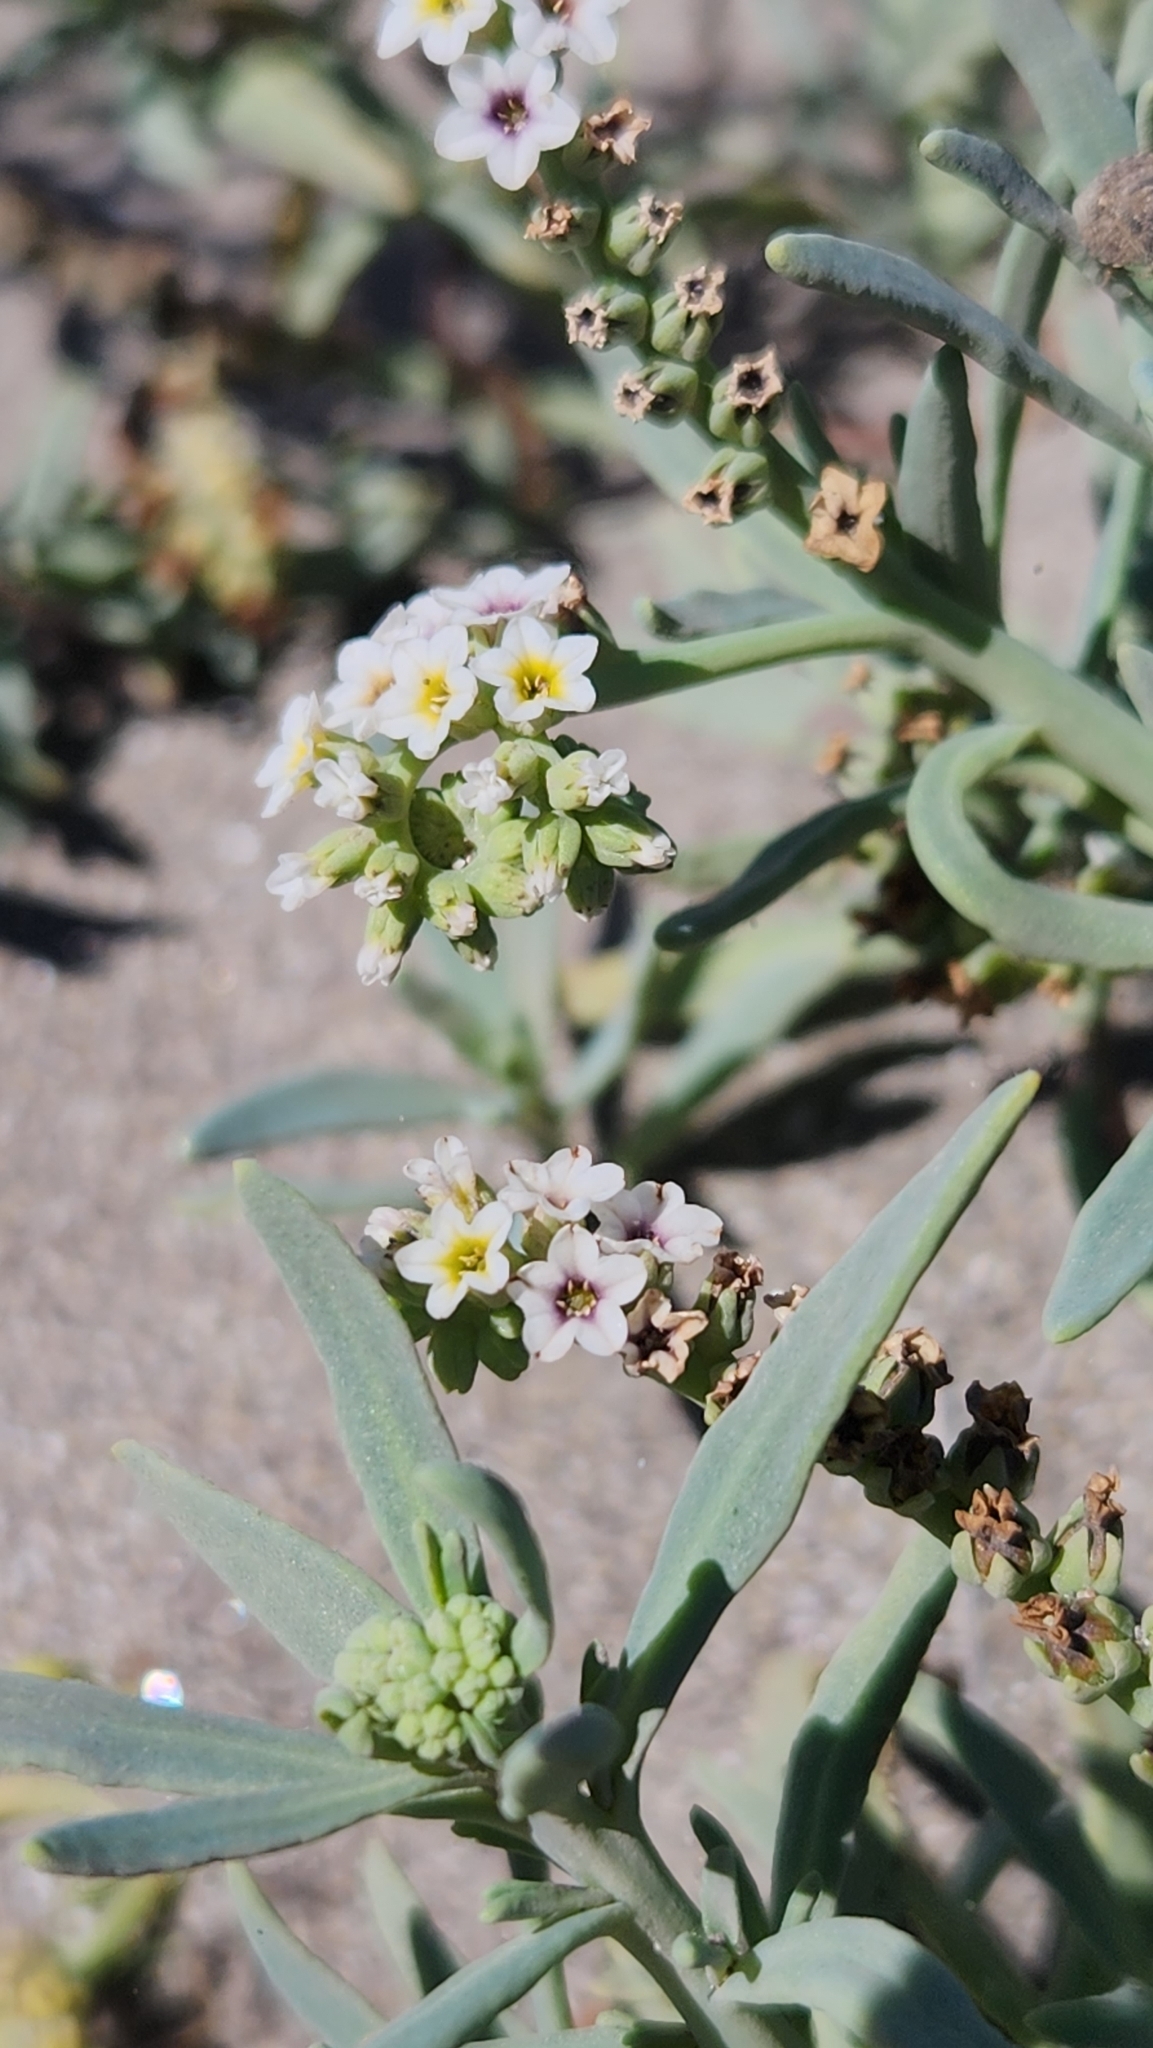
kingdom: Plantae
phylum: Tracheophyta
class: Magnoliopsida
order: Boraginales
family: Heliotropiaceae
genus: Heliotropium
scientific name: Heliotropium curassavicum
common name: Seaside heliotrope
